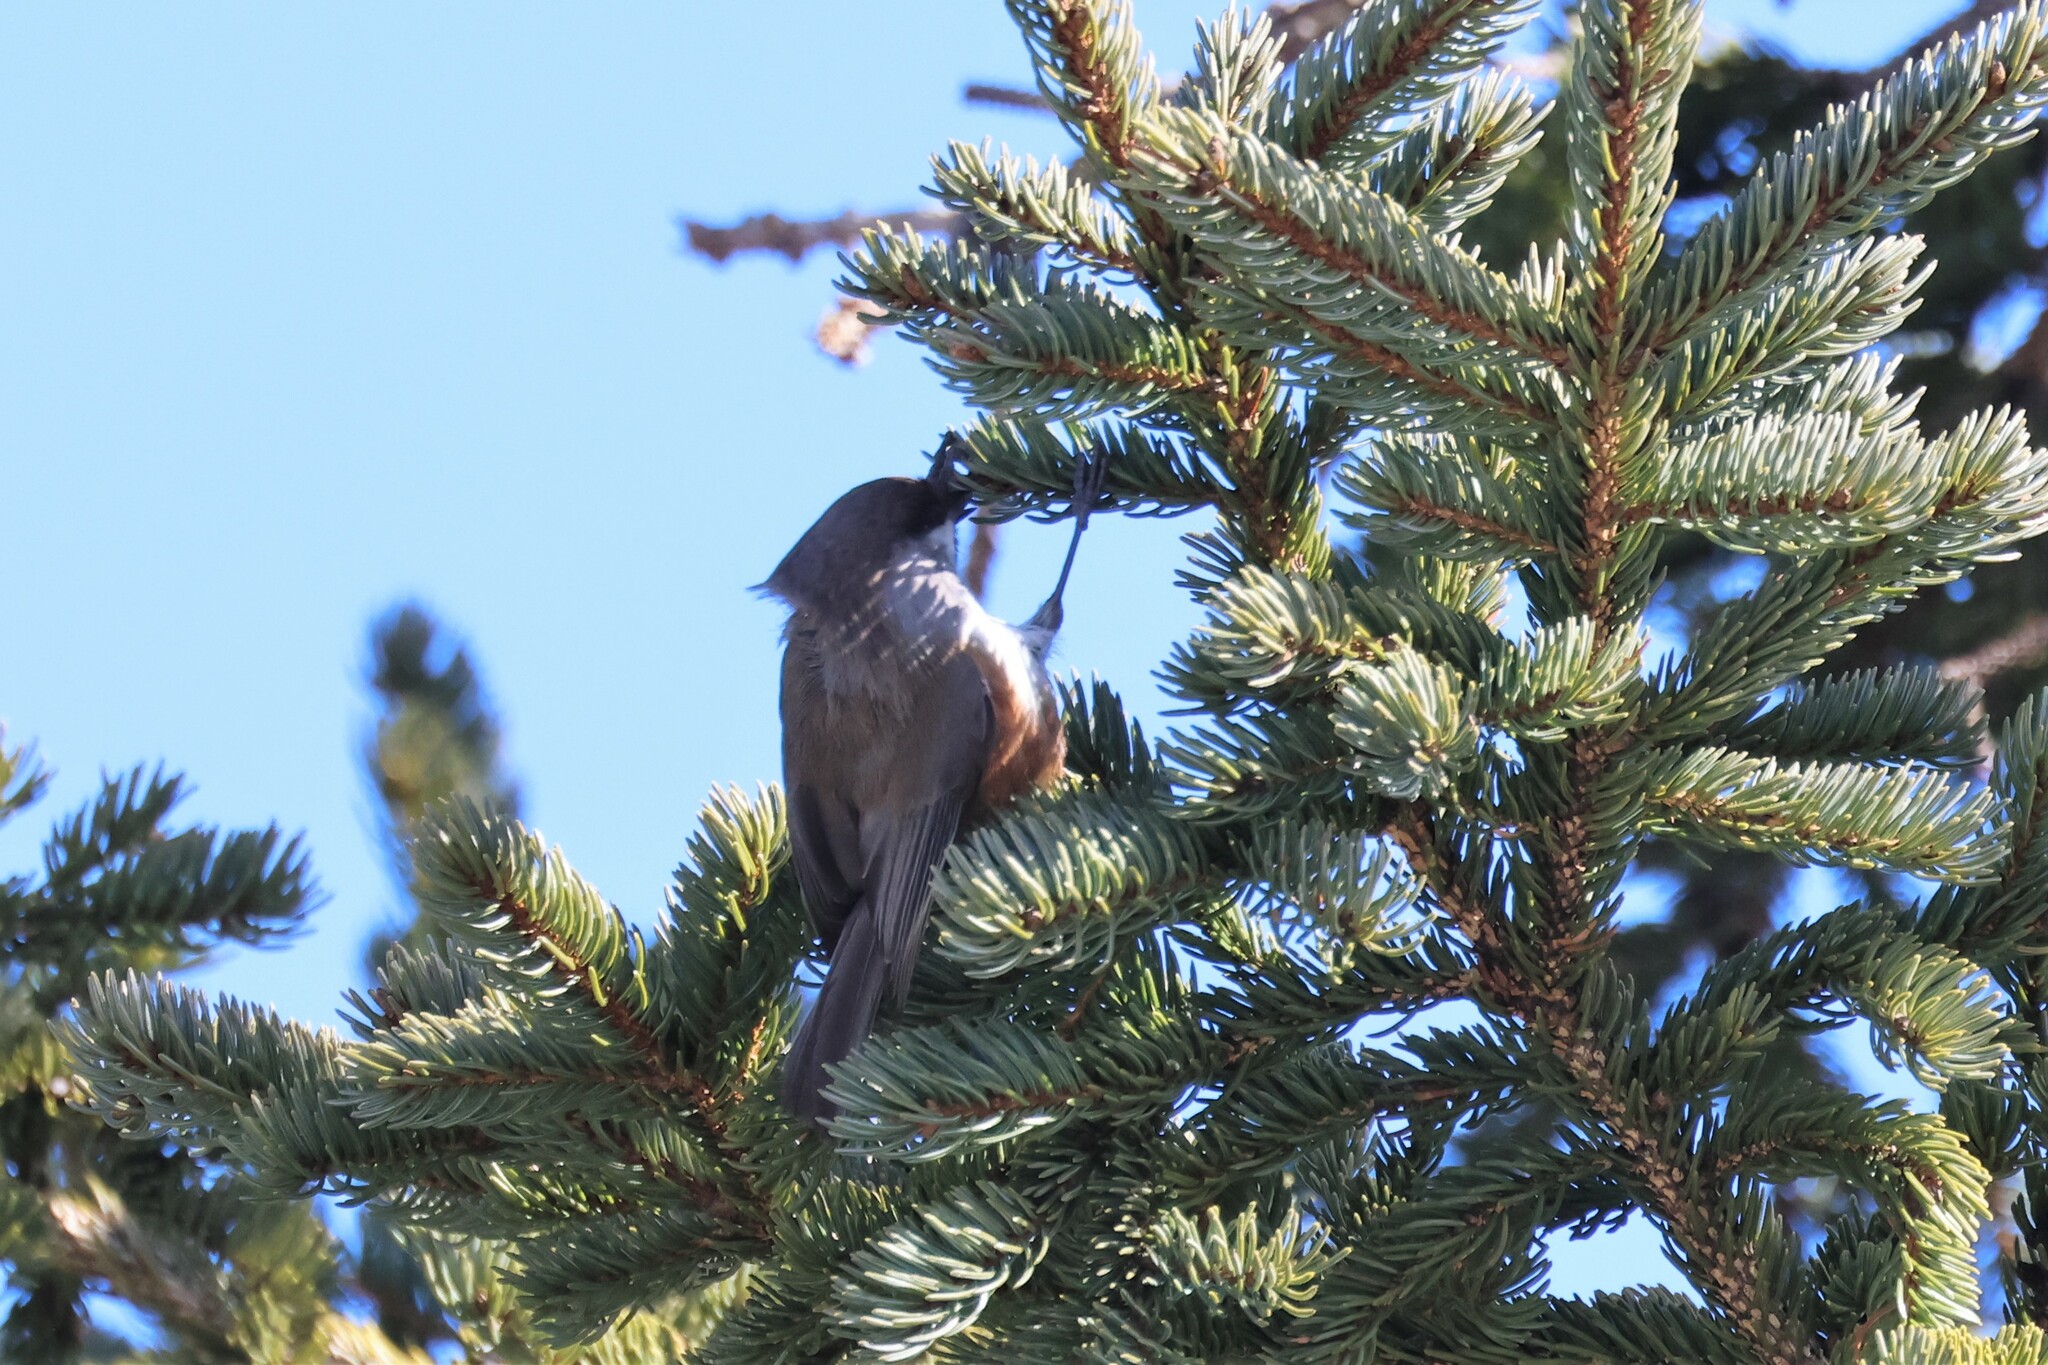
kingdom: Animalia
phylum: Chordata
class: Aves
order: Passeriformes
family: Paridae
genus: Poecile
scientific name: Poecile hudsonicus
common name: Boreal chickadee
